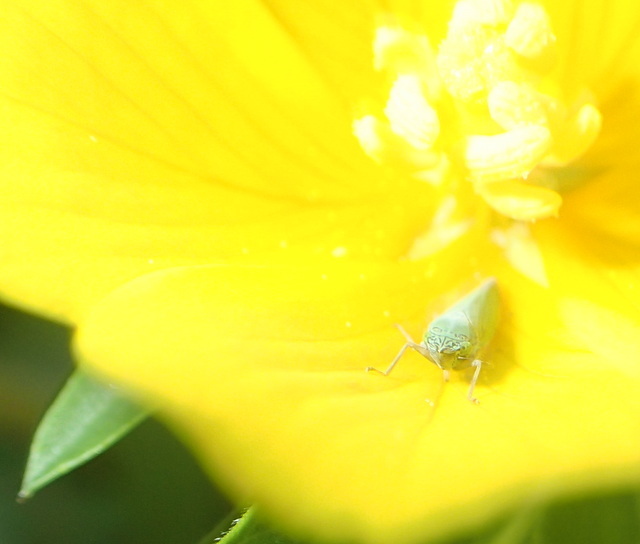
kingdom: Animalia
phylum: Arthropoda
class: Insecta
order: Hemiptera
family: Cicadellidae
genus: Draeculacephala
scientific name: Draeculacephala inscripta
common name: Leafhopper
